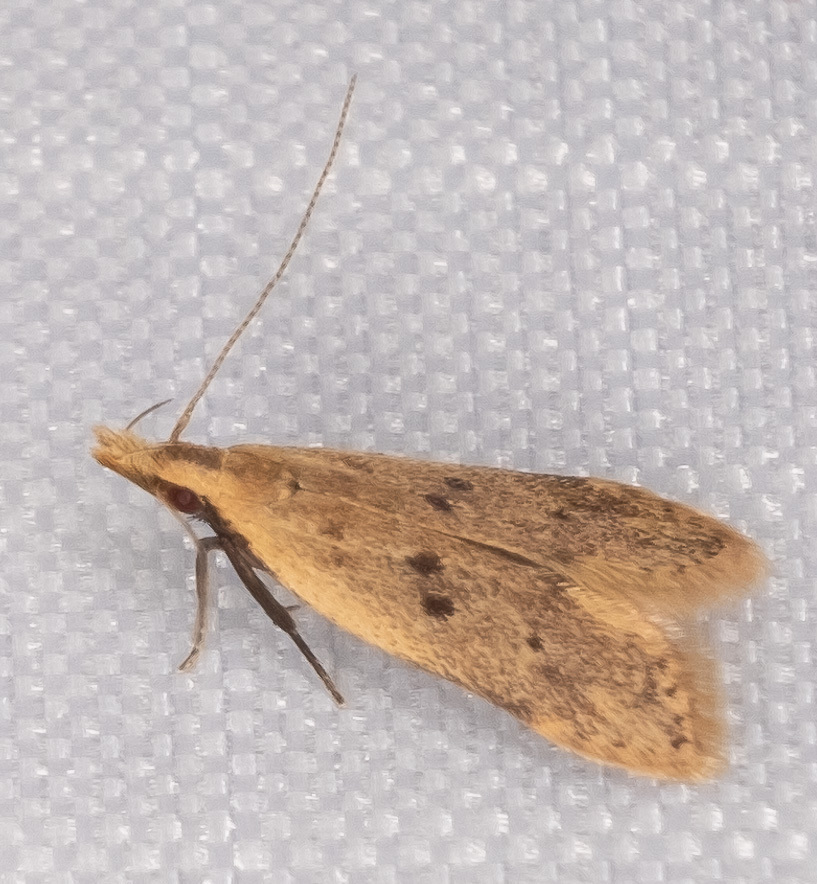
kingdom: Animalia
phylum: Arthropoda
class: Insecta
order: Lepidoptera
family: Gelechiidae
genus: Dichomeris
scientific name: Dichomeris punctipennella
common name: Many-spotted dichomeris moth
